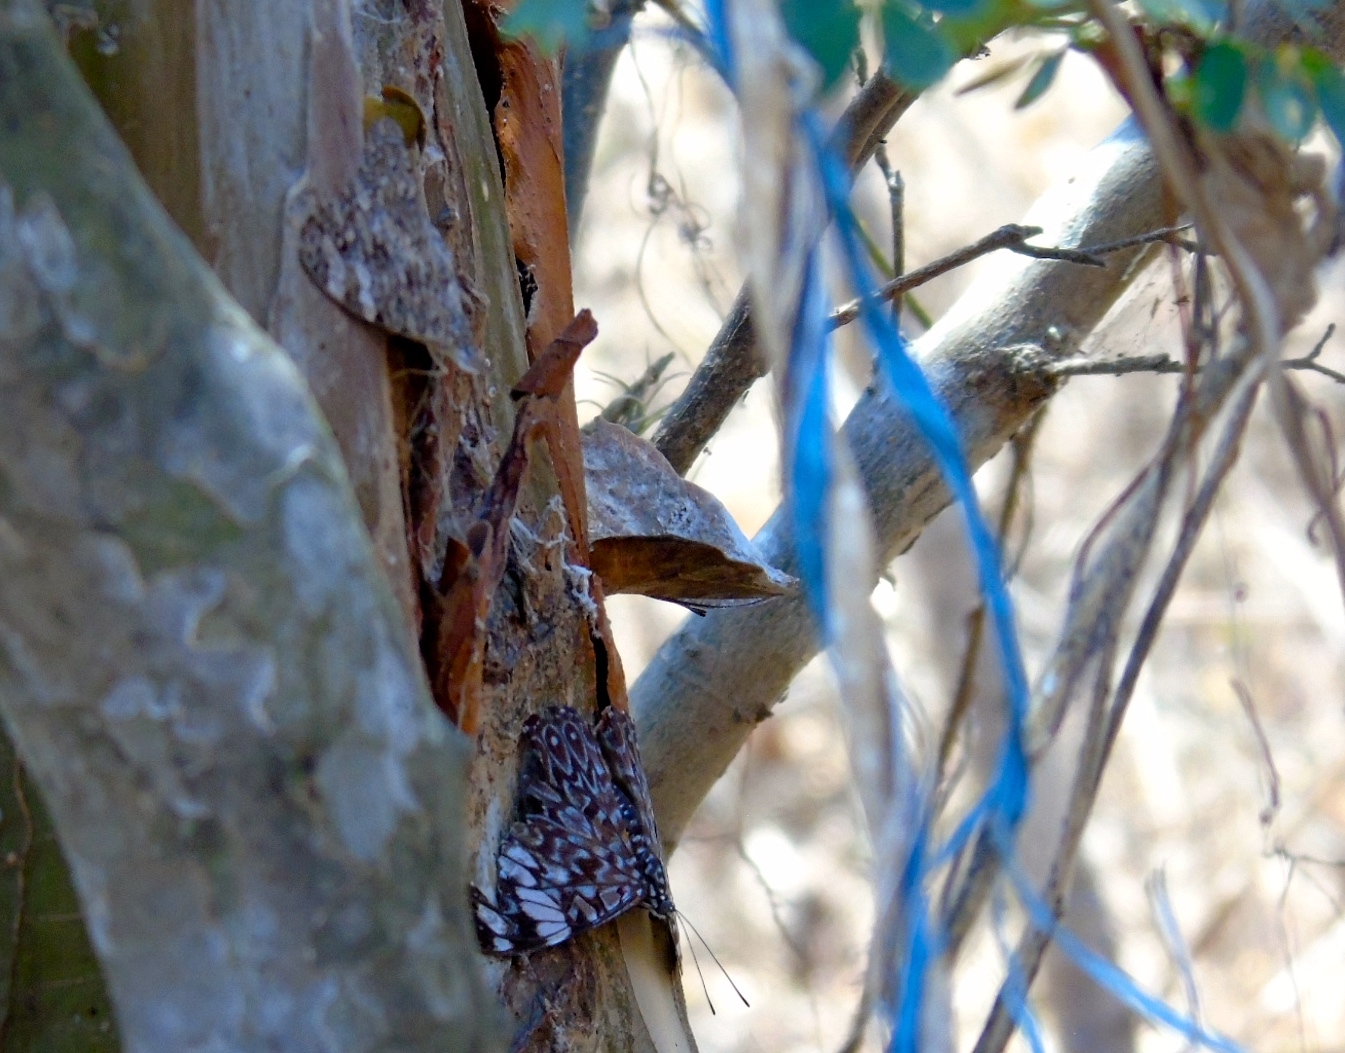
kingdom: Animalia
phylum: Arthropoda
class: Insecta
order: Lepidoptera
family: Nymphalidae
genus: Hamadryas
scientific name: Hamadryas amphinome
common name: Red cracker
